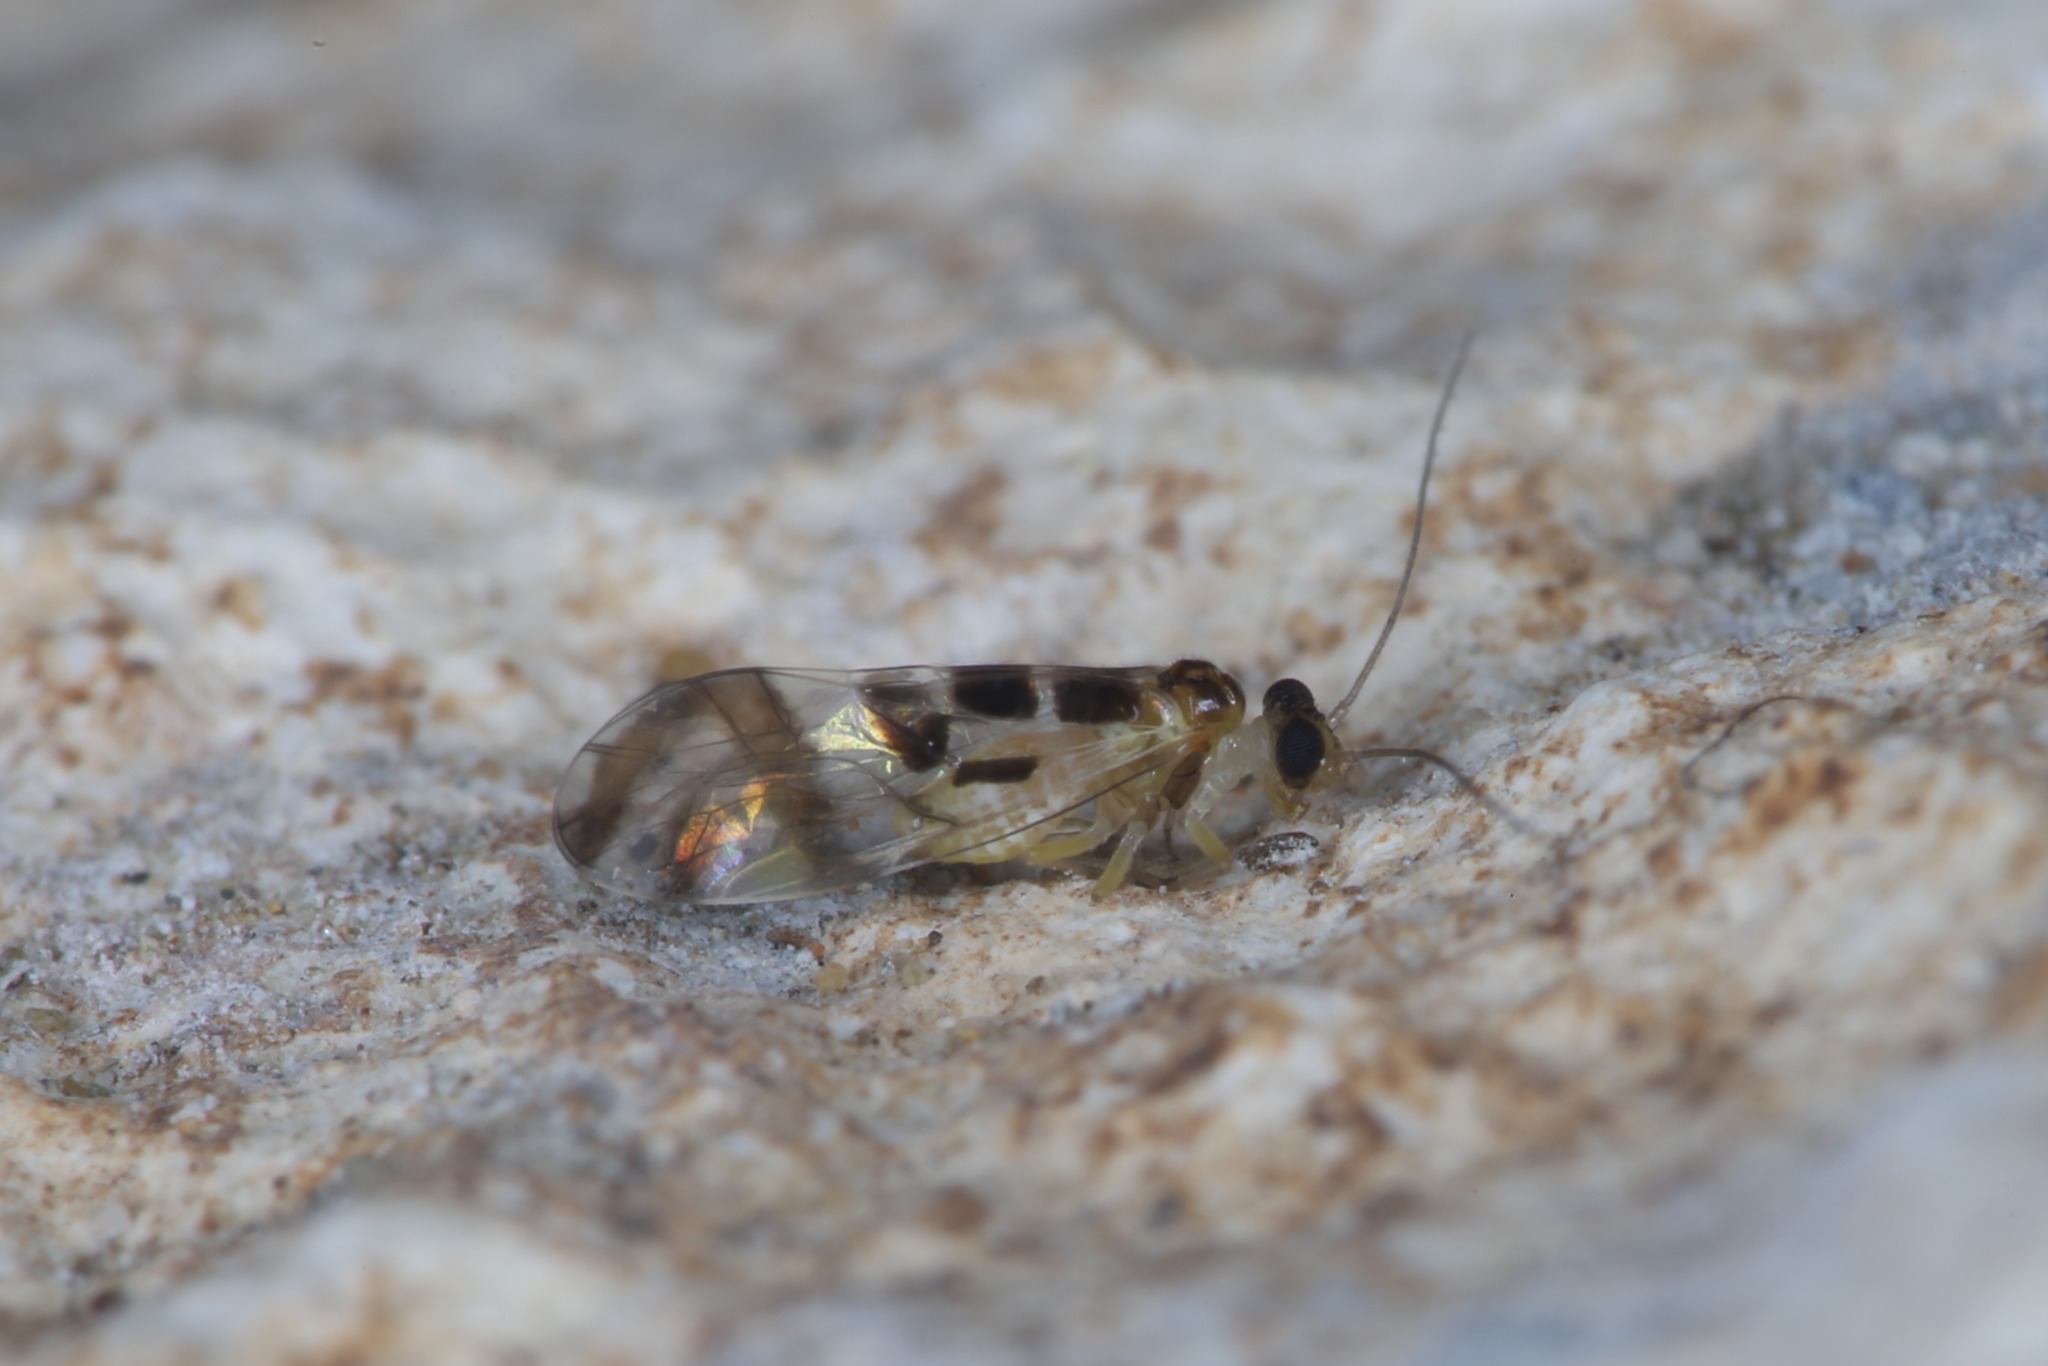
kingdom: Animalia
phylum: Arthropoda
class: Insecta
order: Psocodea
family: Stenopsocidae
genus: Graphopsocus
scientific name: Graphopsocus cruciatus
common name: Lizard bark louse
